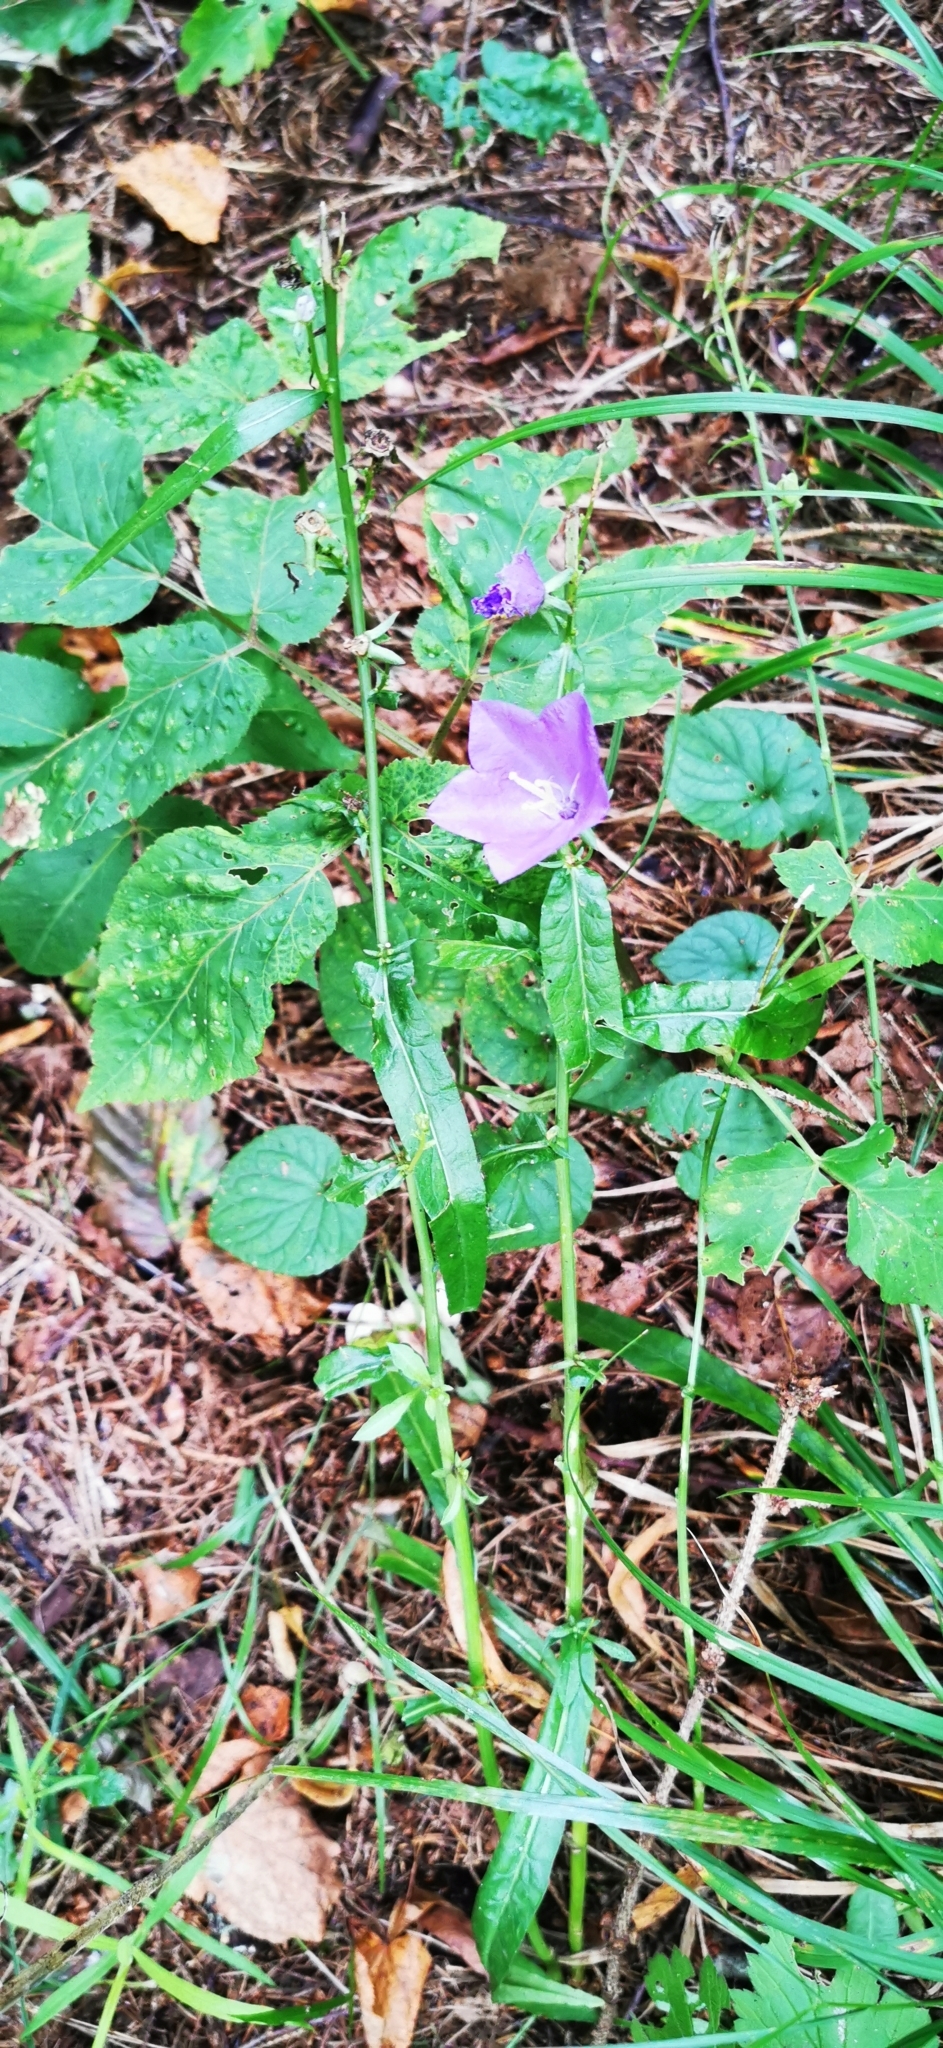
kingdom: Plantae
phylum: Tracheophyta
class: Magnoliopsida
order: Asterales
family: Campanulaceae
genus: Campanula
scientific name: Campanula persicifolia
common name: Peach-leaved bellflower
